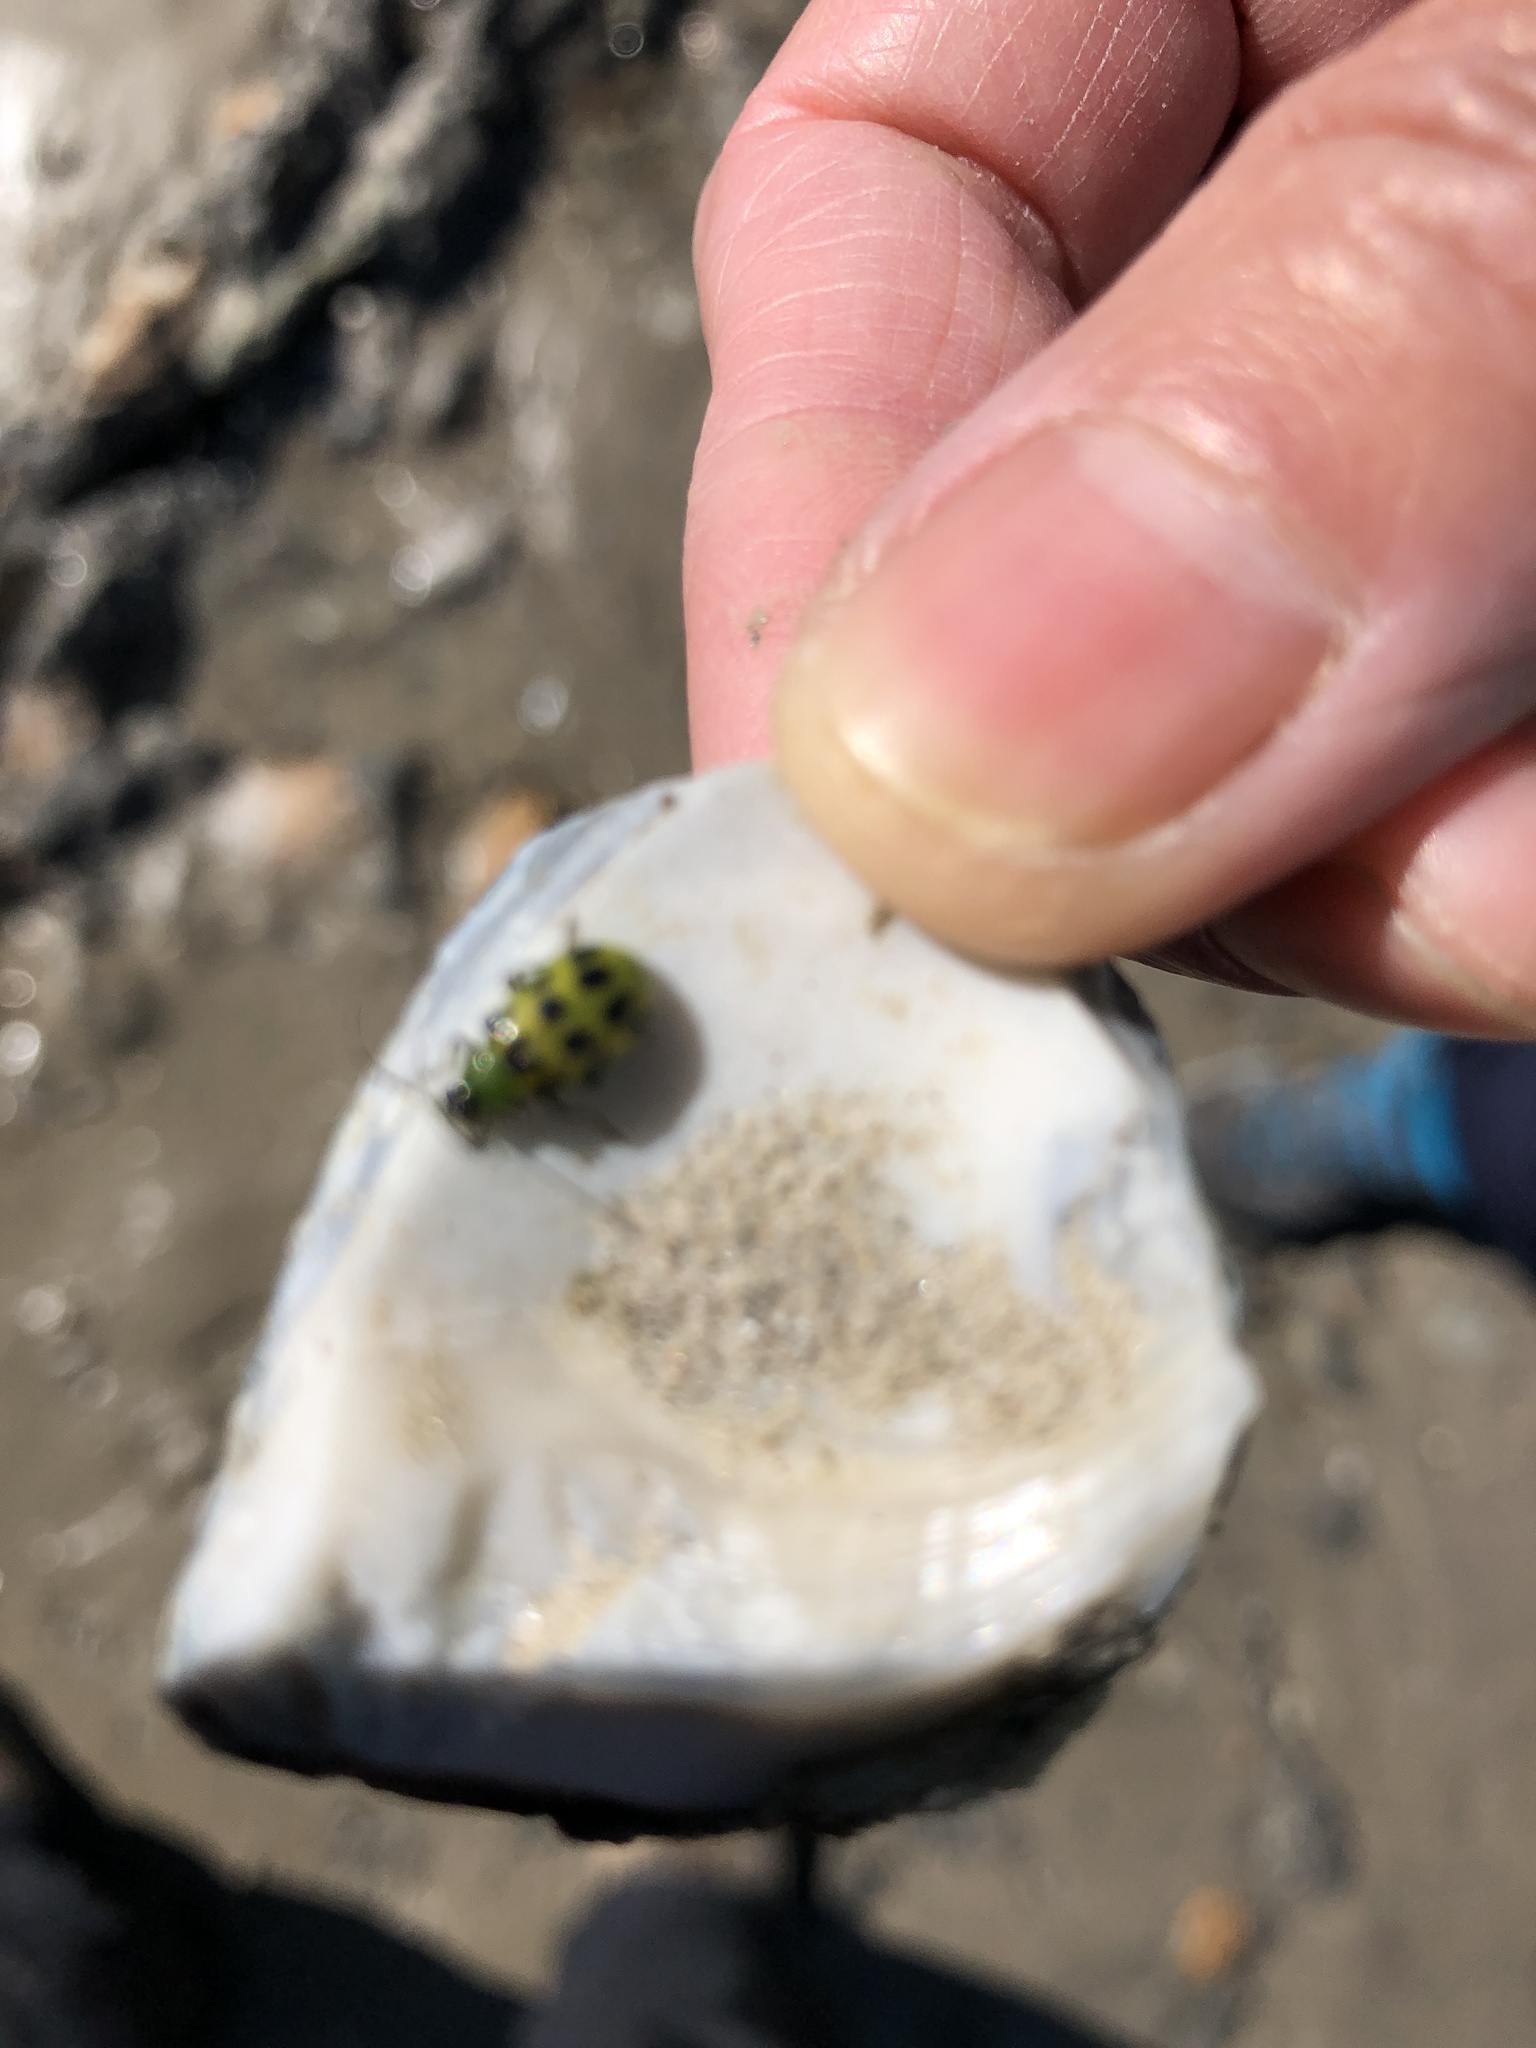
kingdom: Animalia
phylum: Arthropoda
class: Insecta
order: Coleoptera
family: Chrysomelidae
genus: Diabrotica
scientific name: Diabrotica undecimpunctata
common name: Spotted cucumber beetle
